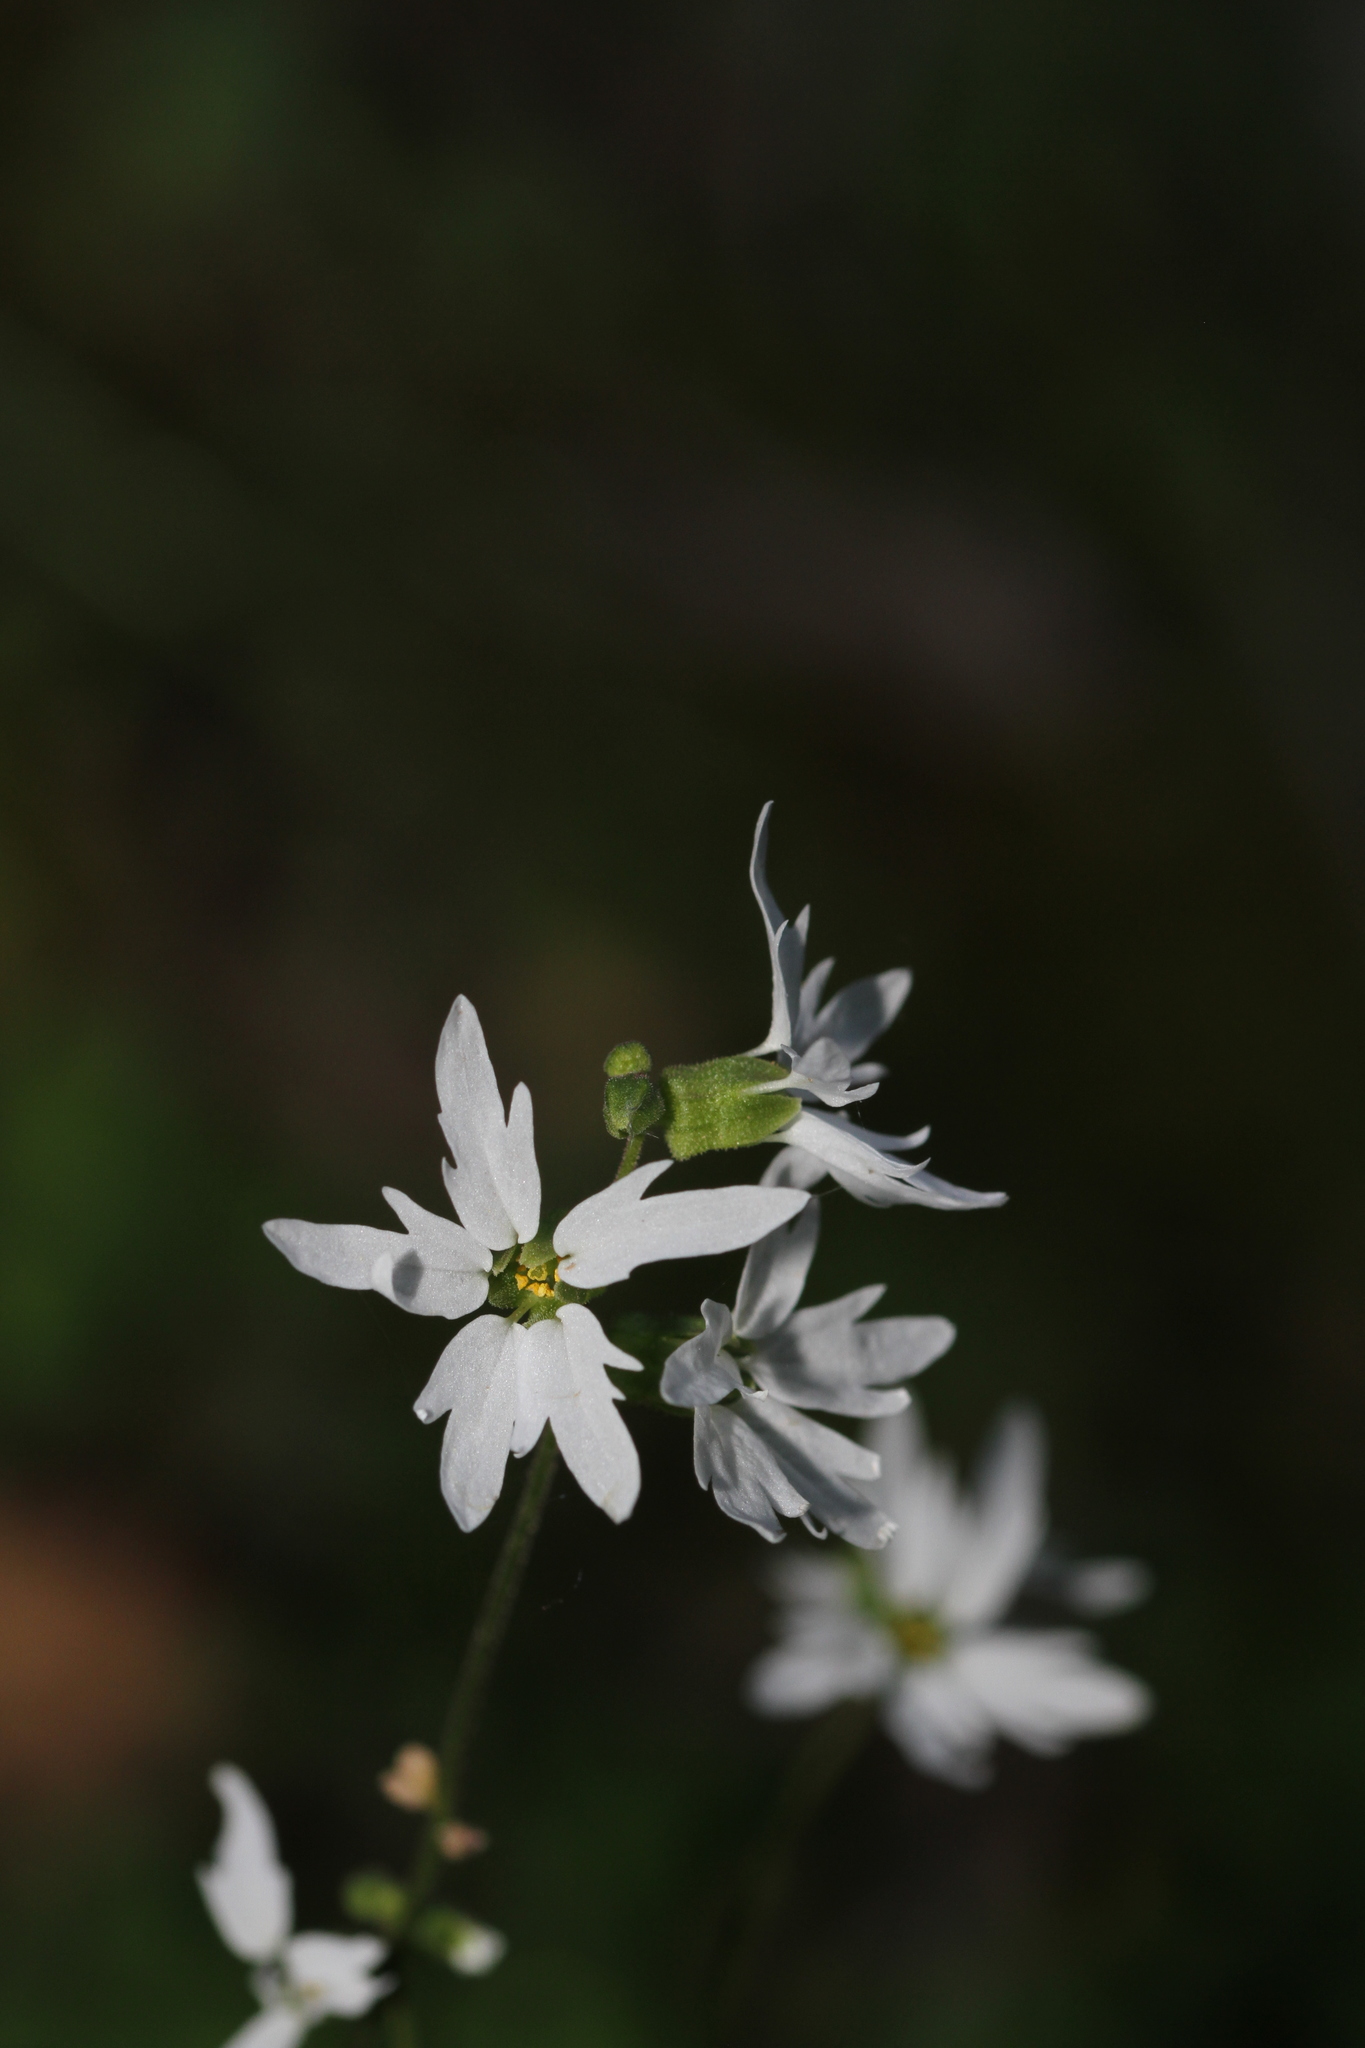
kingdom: Plantae
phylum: Tracheophyta
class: Magnoliopsida
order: Saxifragales
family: Saxifragaceae
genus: Lithophragma
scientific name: Lithophragma heterophyllum
